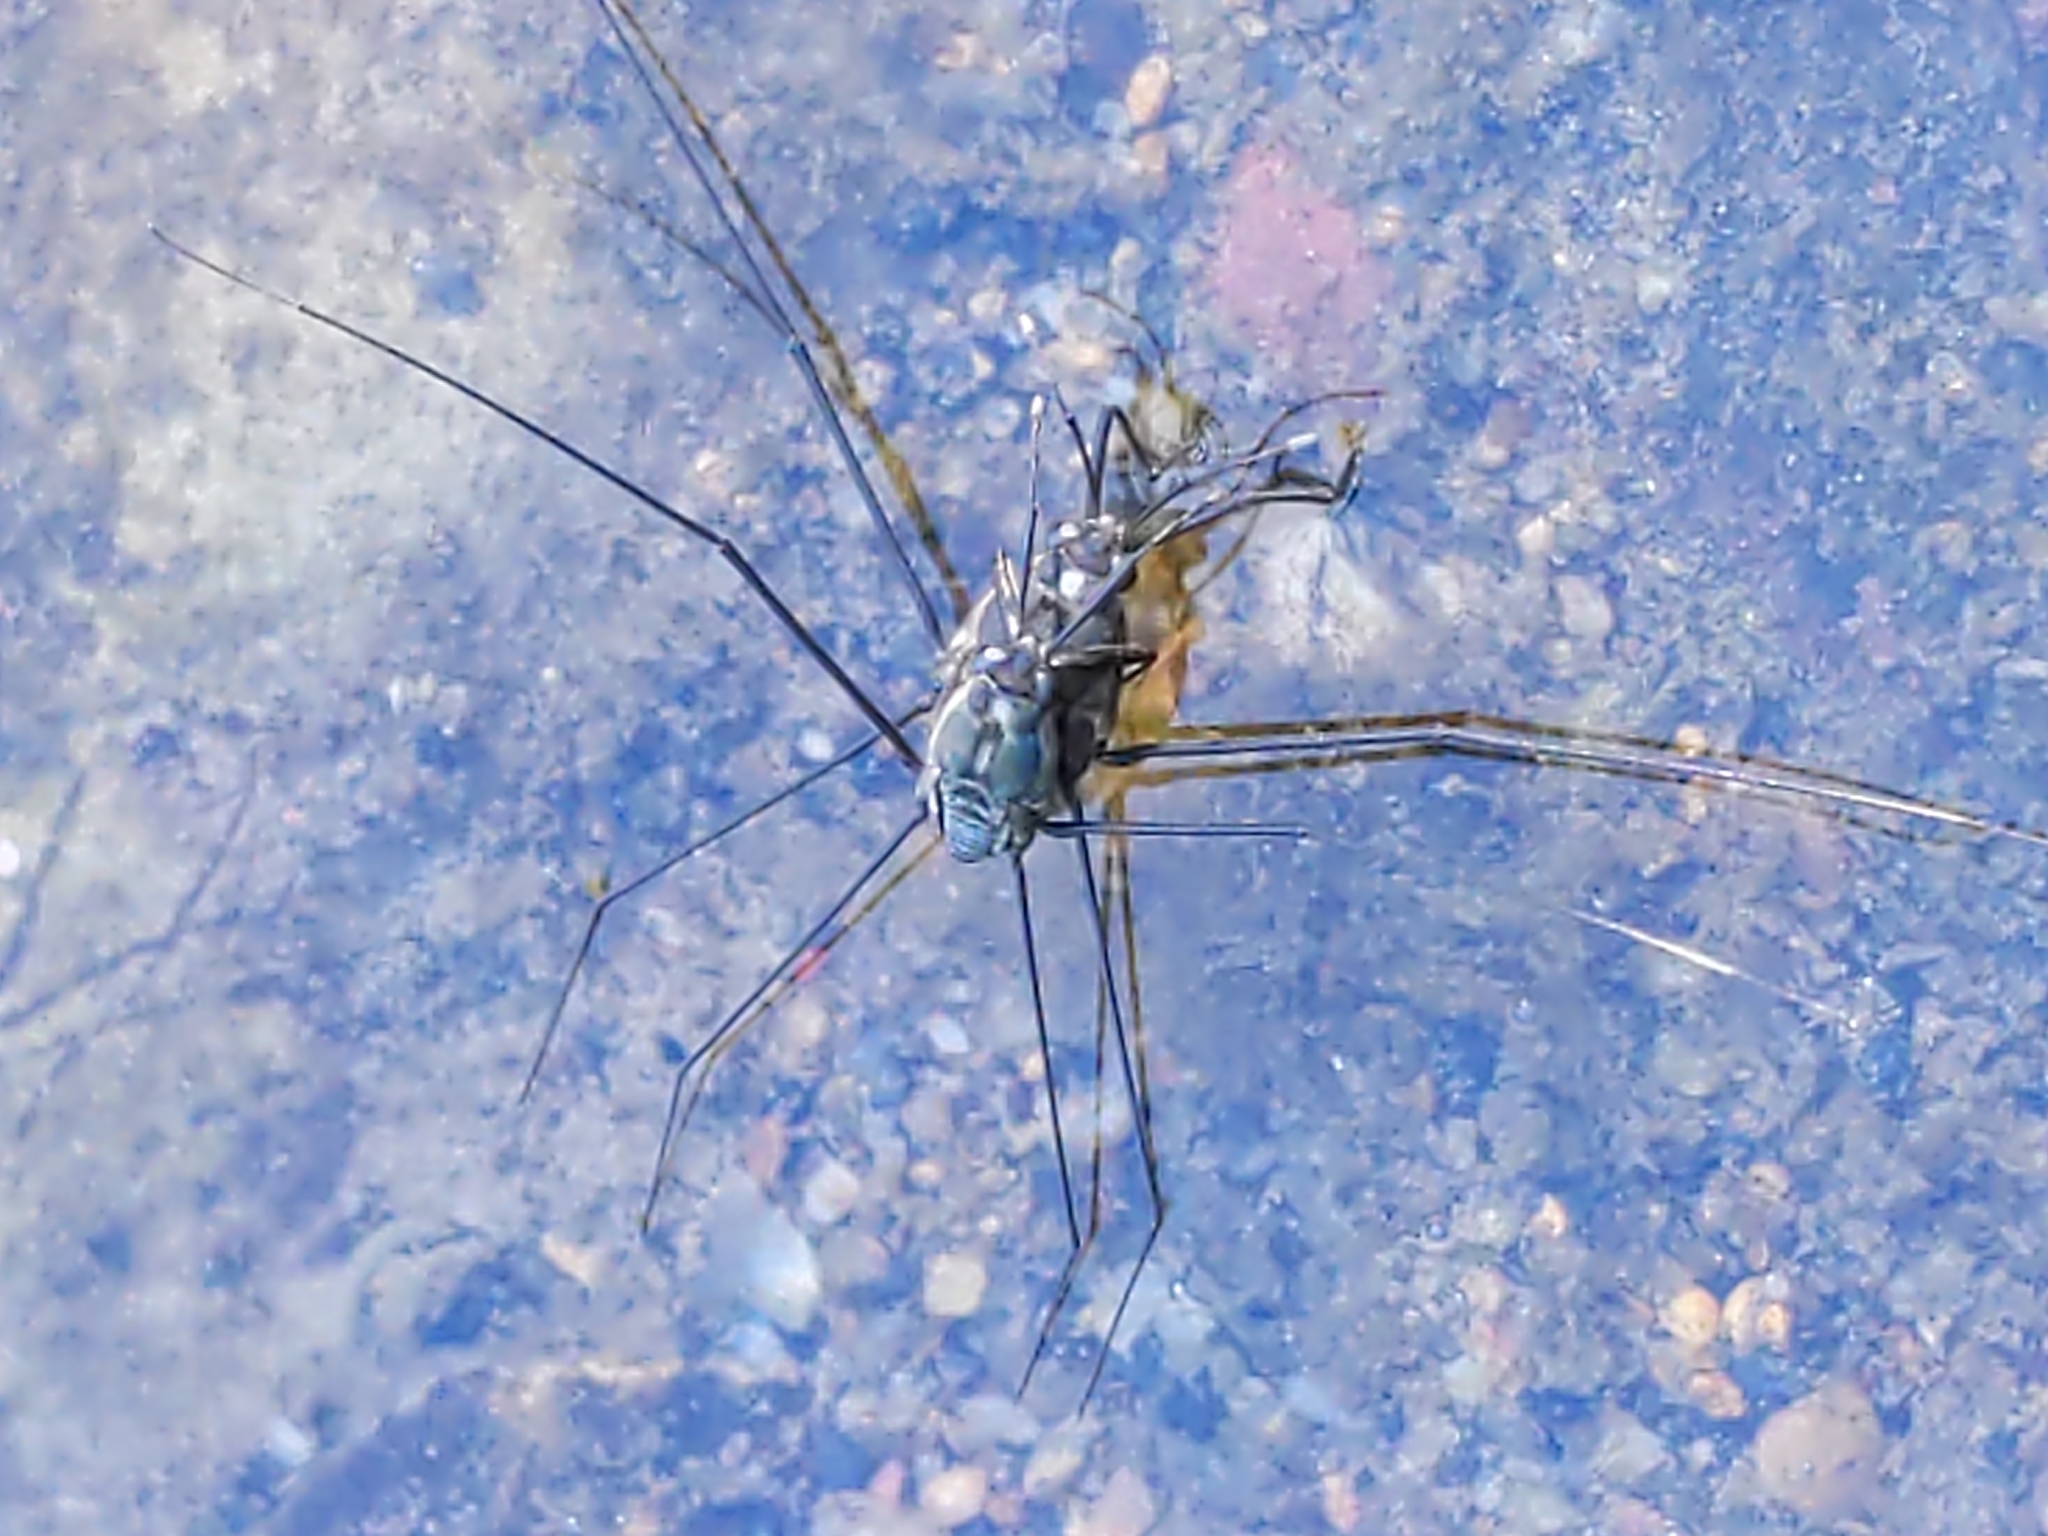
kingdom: Animalia
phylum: Arthropoda
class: Insecta
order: Hemiptera
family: Gerridae
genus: Metrobates
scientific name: Metrobates hesperius
